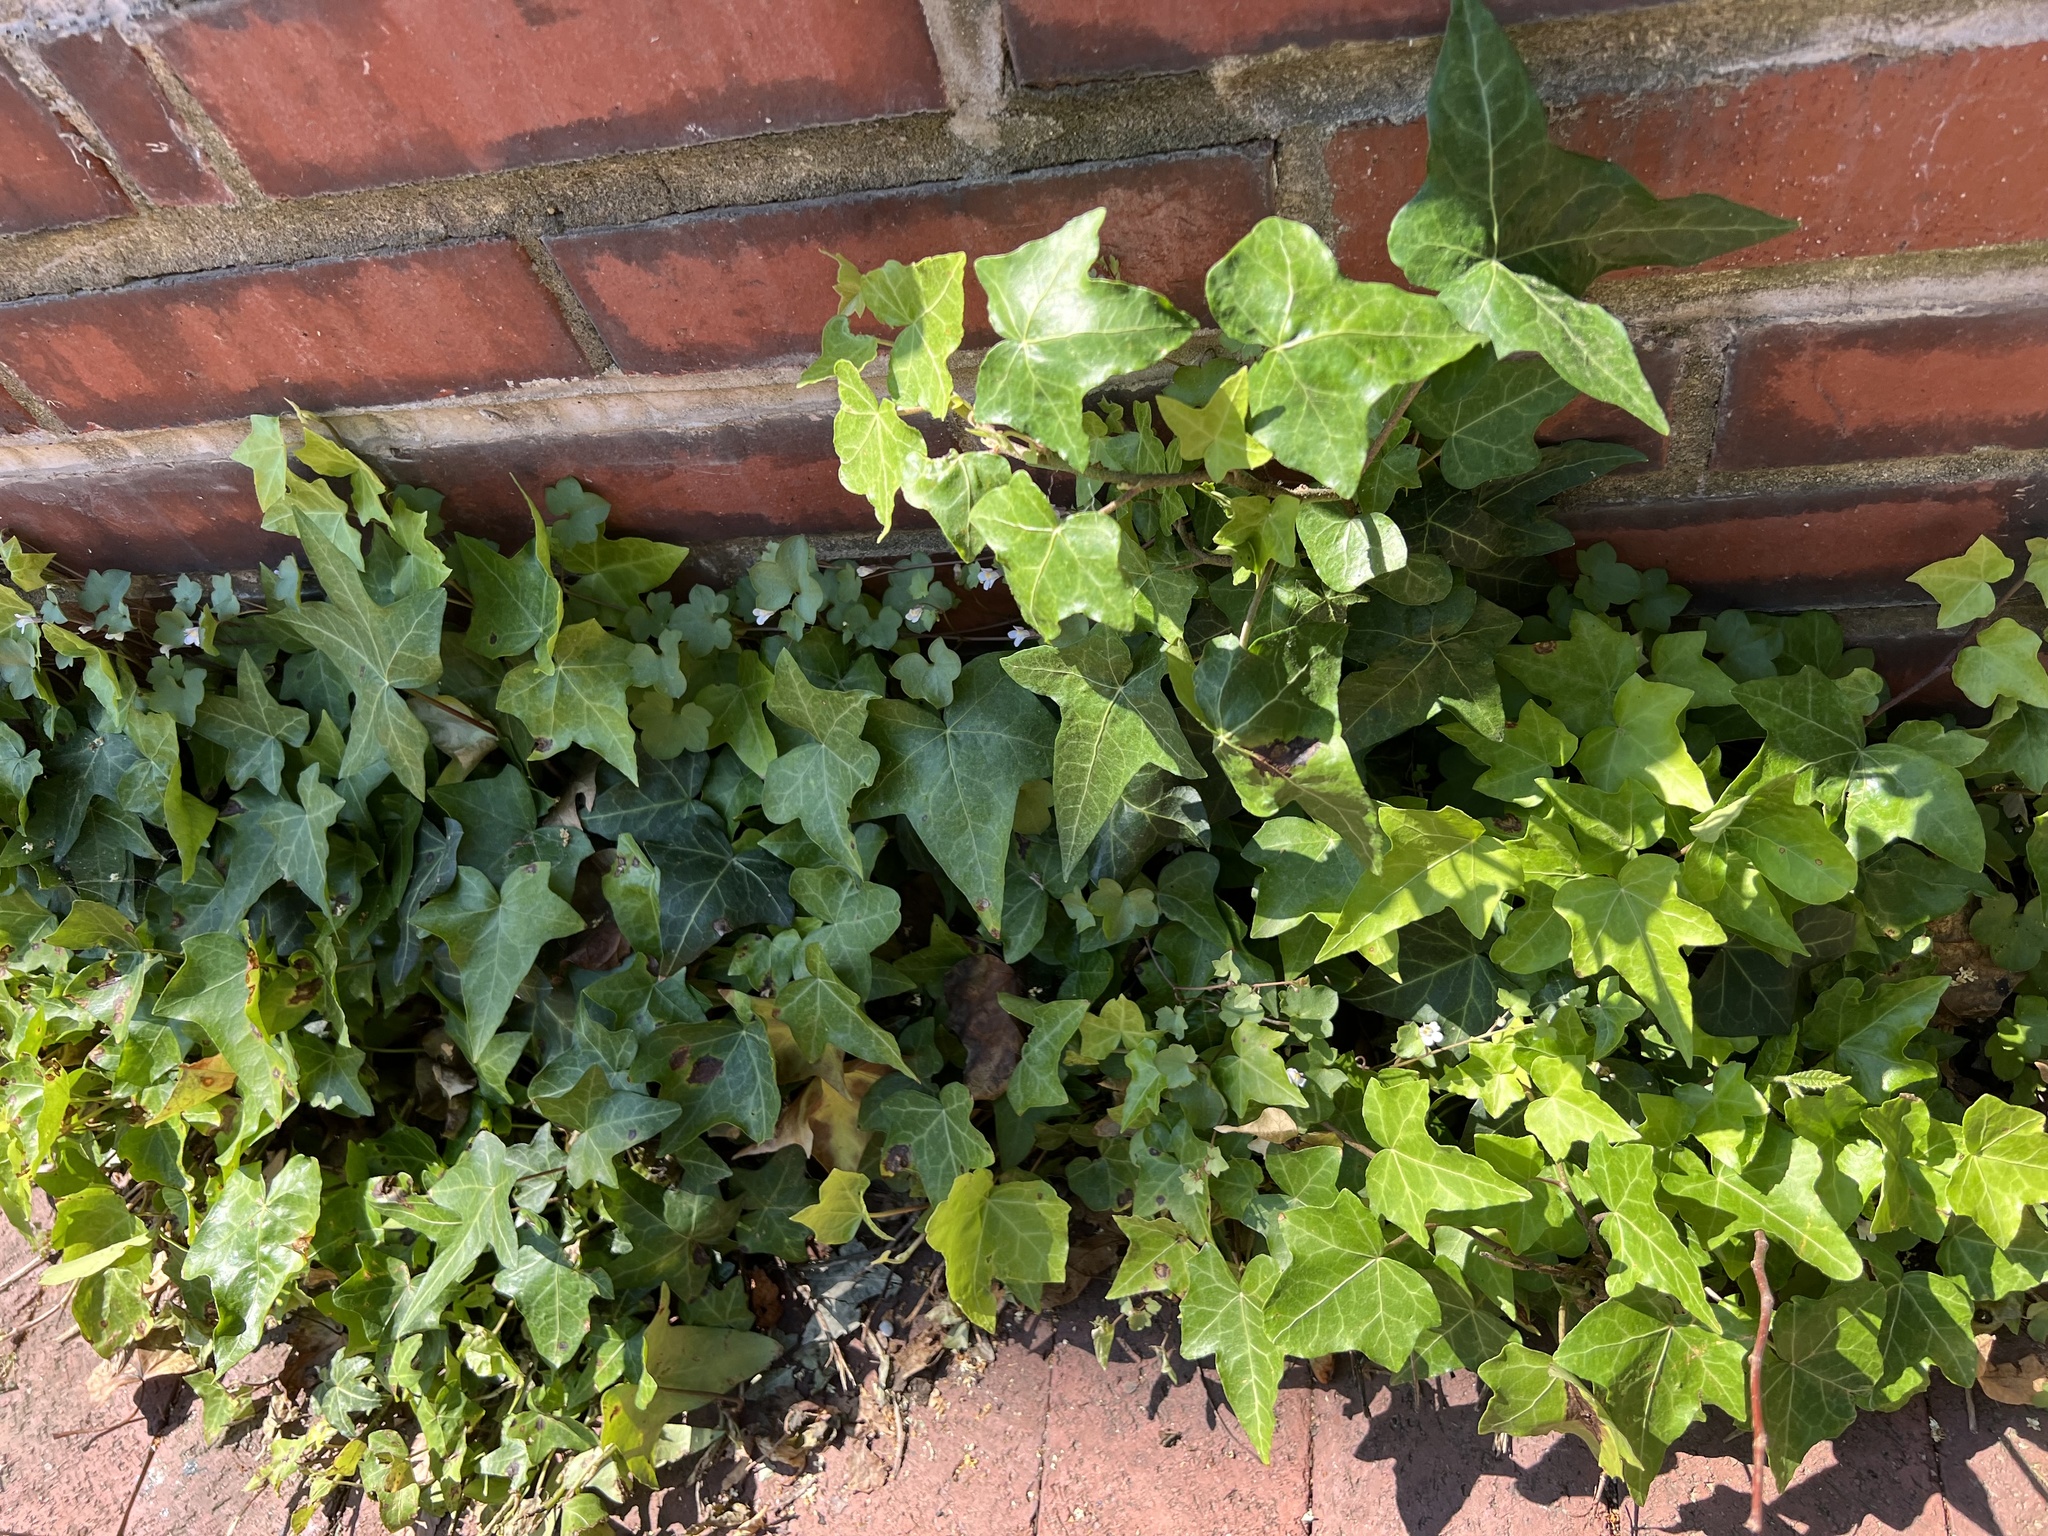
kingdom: Plantae
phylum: Tracheophyta
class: Magnoliopsida
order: Apiales
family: Araliaceae
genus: Hedera
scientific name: Hedera helix
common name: Ivy
